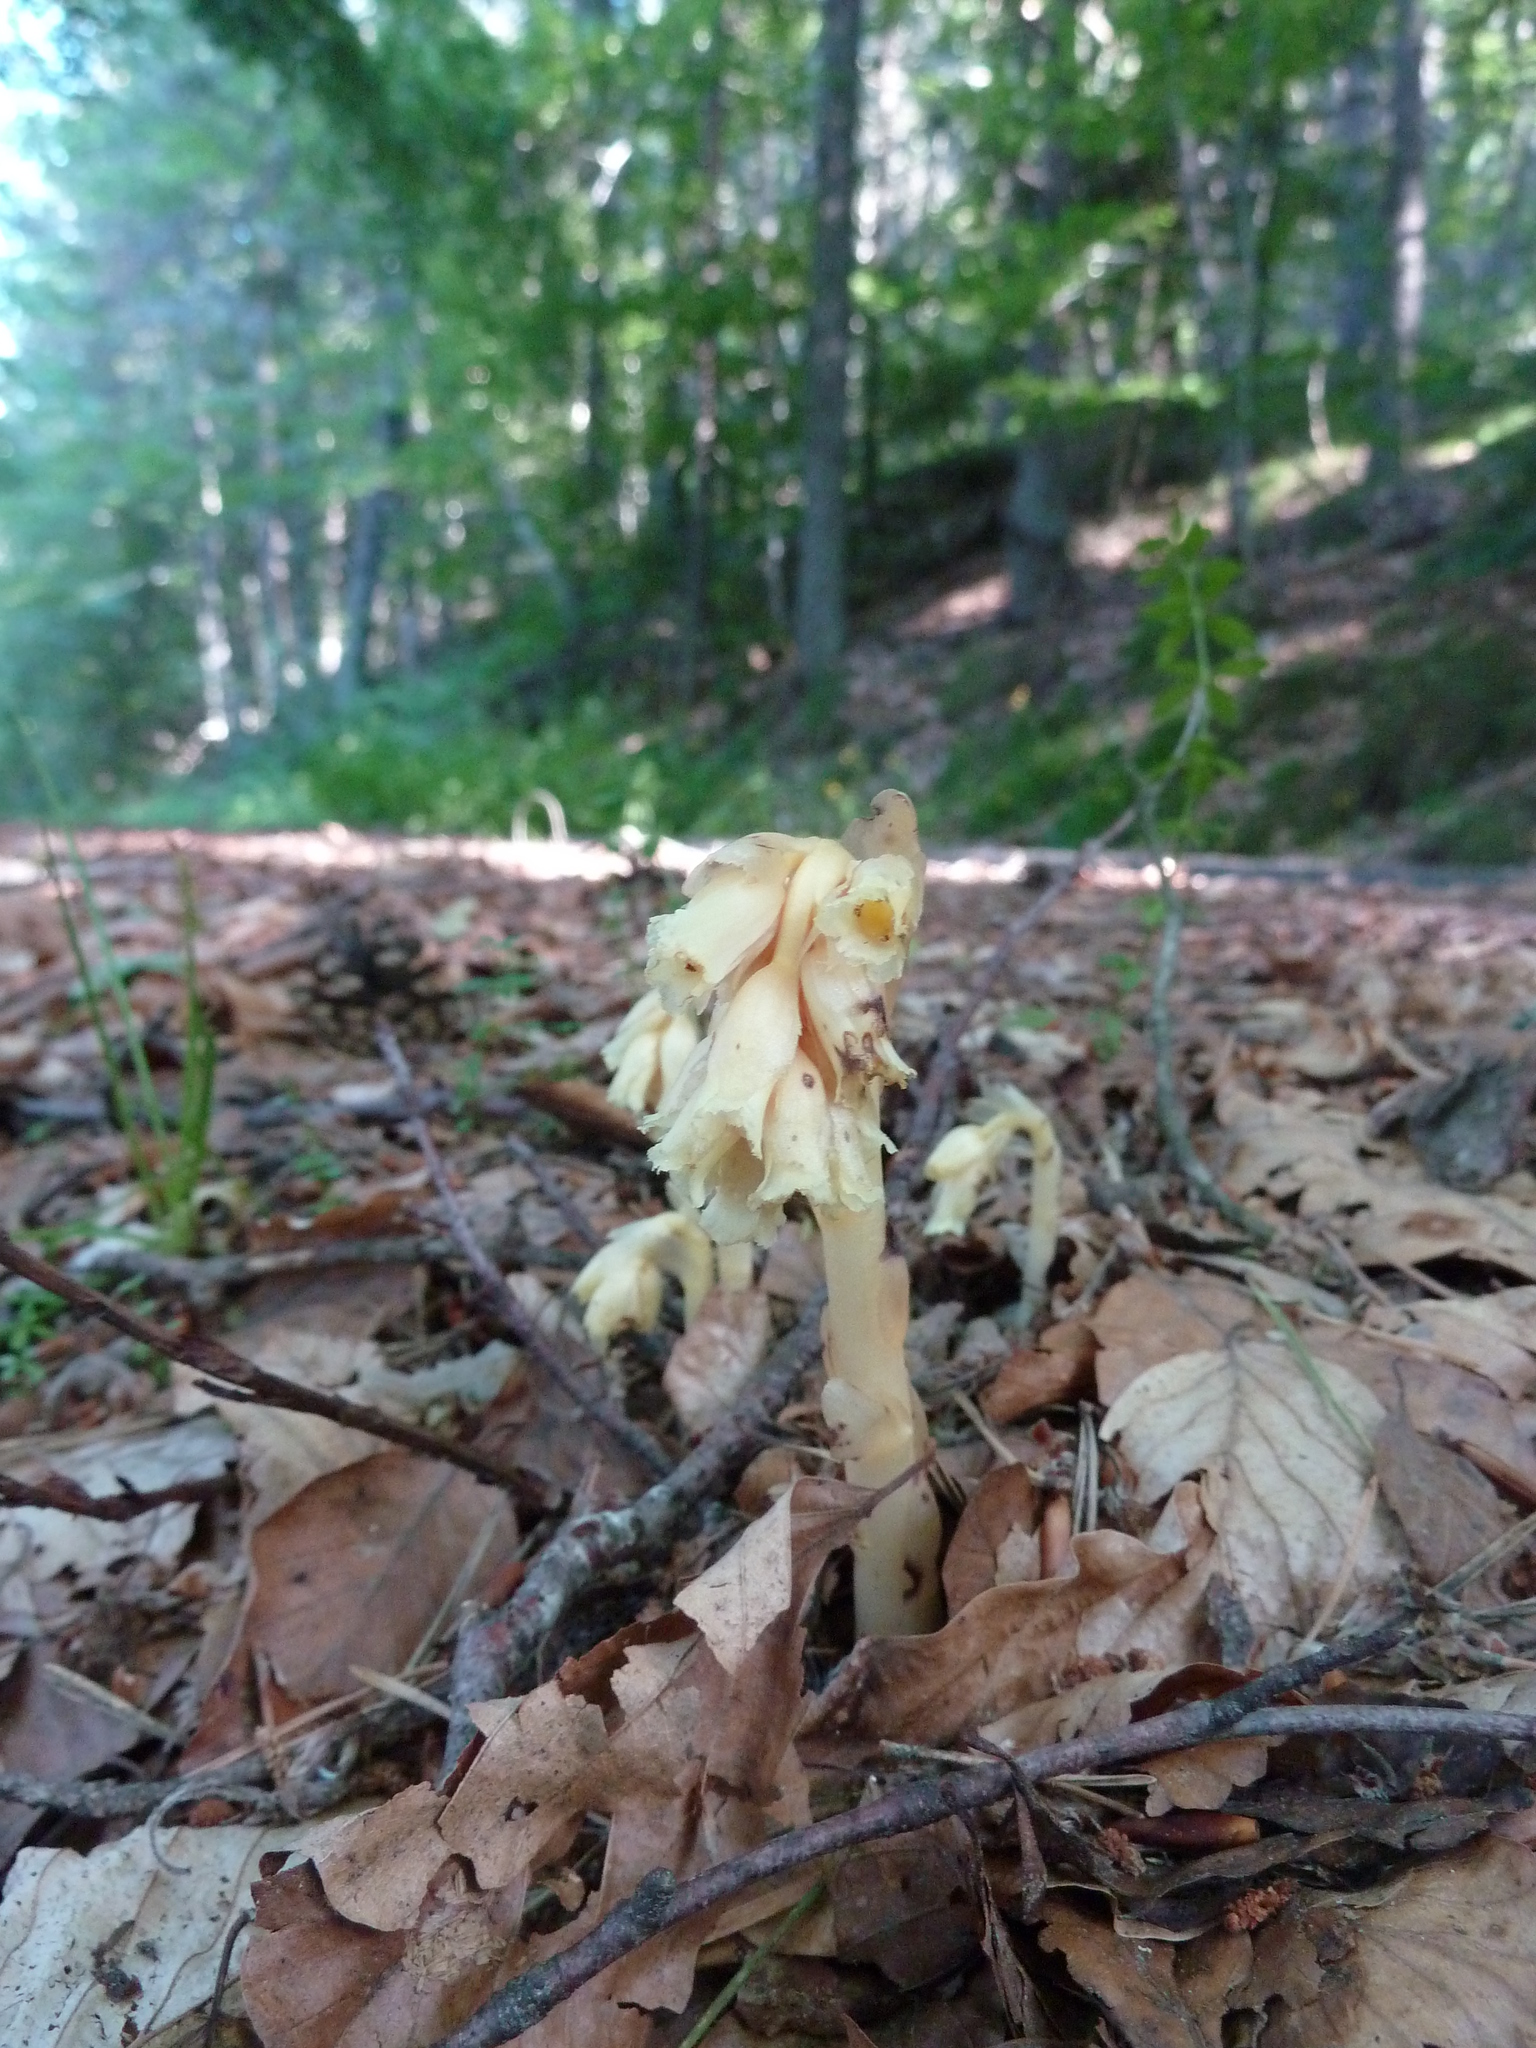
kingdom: Plantae
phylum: Tracheophyta
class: Magnoliopsida
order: Ericales
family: Ericaceae
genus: Hypopitys
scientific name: Hypopitys monotropa
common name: Yellow bird's-nest
